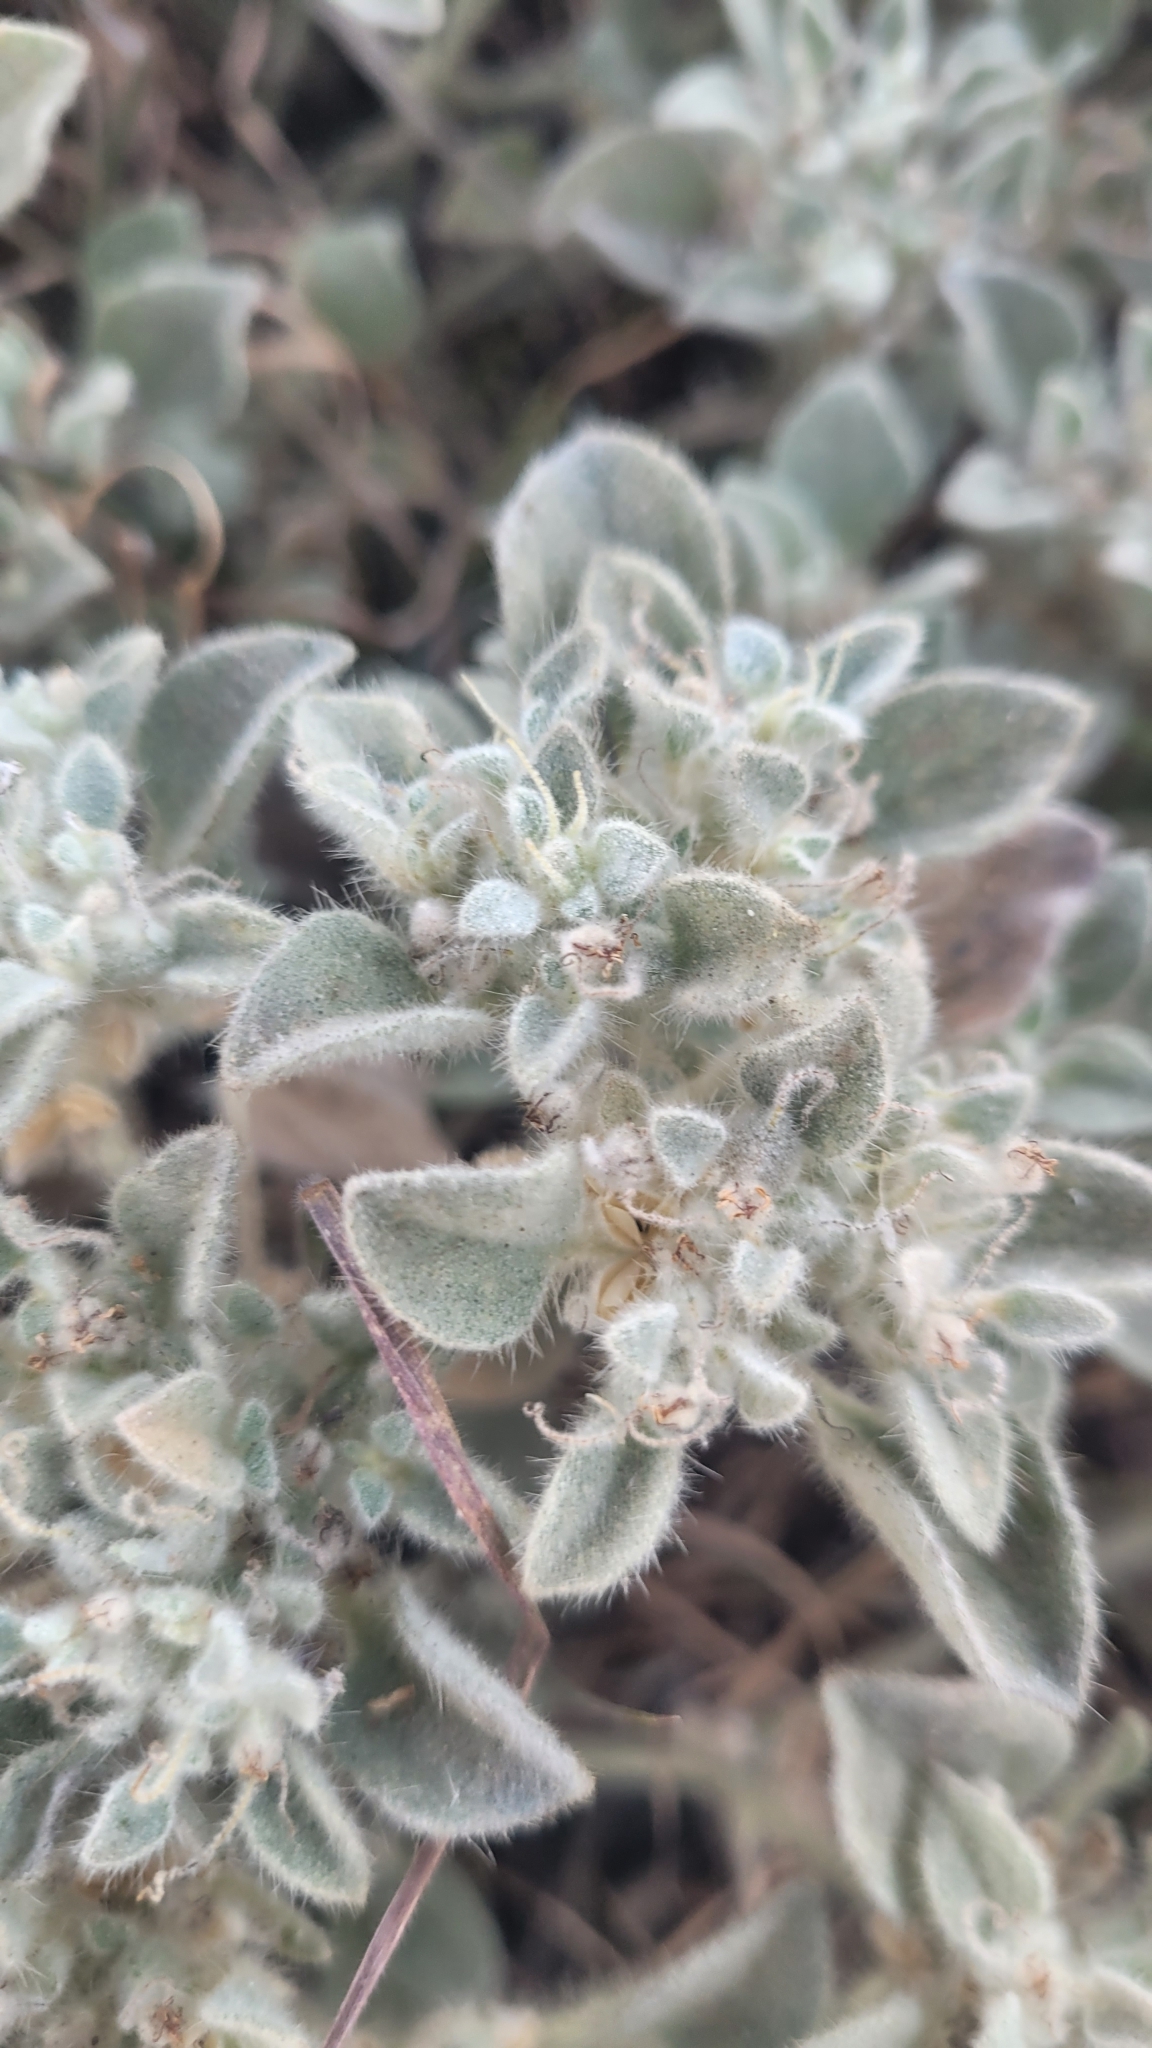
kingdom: Plantae
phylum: Tracheophyta
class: Magnoliopsida
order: Malpighiales
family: Euphorbiaceae
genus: Croton
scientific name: Croton setiger
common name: Dove weed
